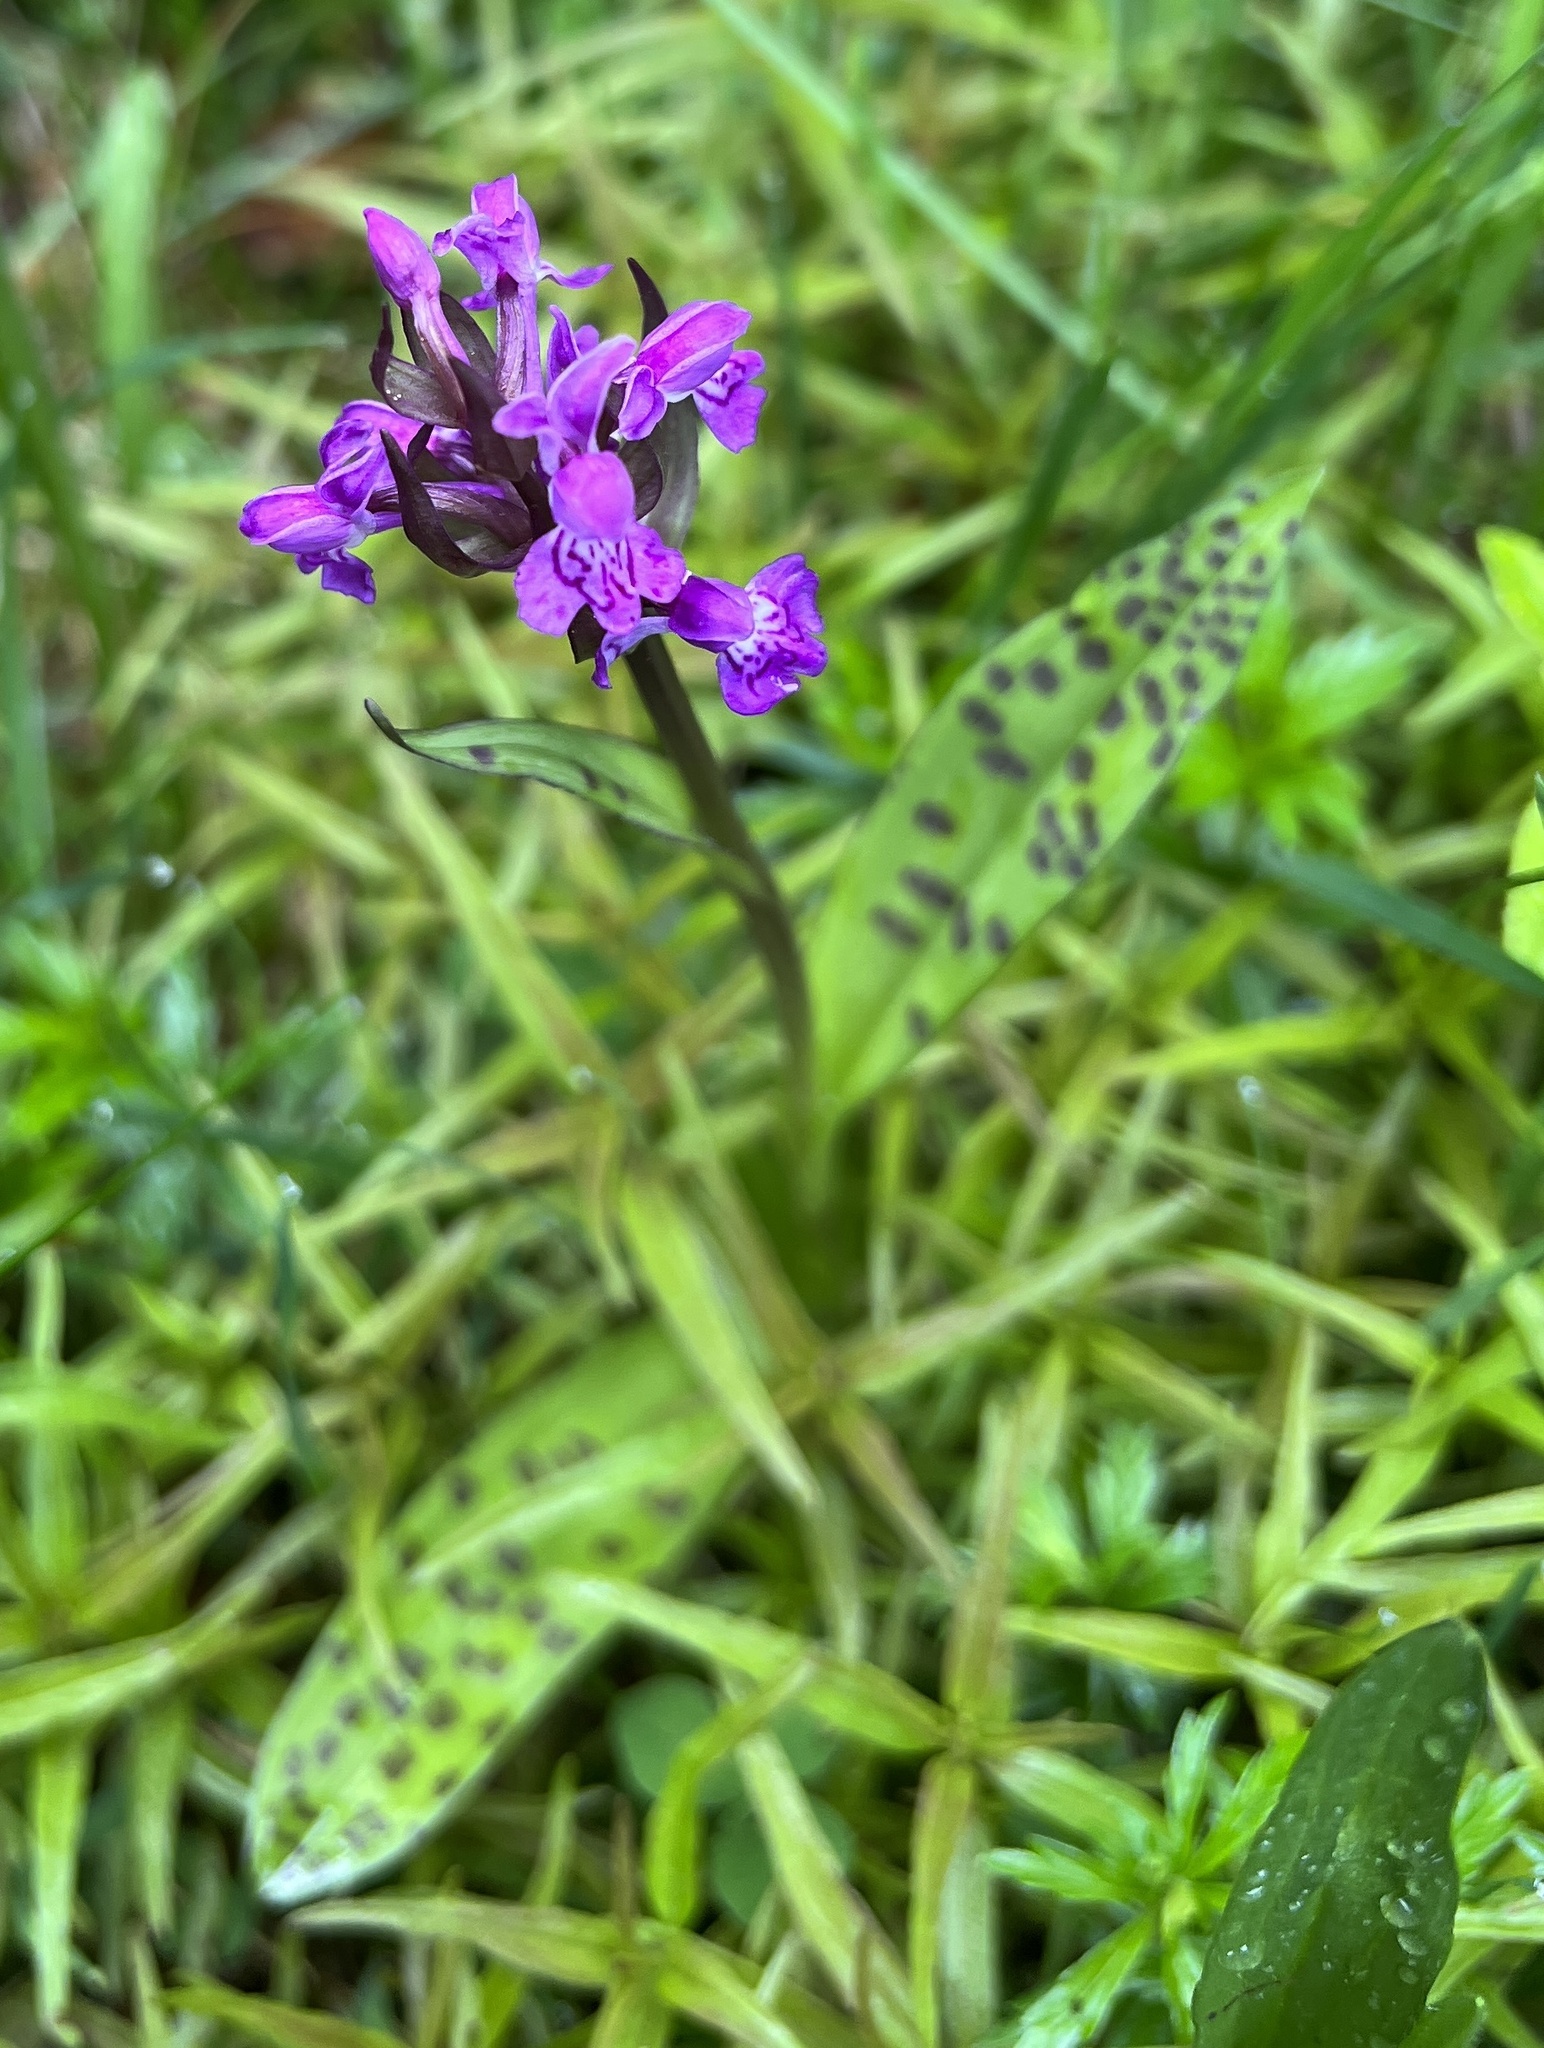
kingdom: Plantae
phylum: Tracheophyta
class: Liliopsida
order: Asparagales
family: Orchidaceae
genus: Dactylorhiza
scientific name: Dactylorhiza majalis
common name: Marsh orchid
